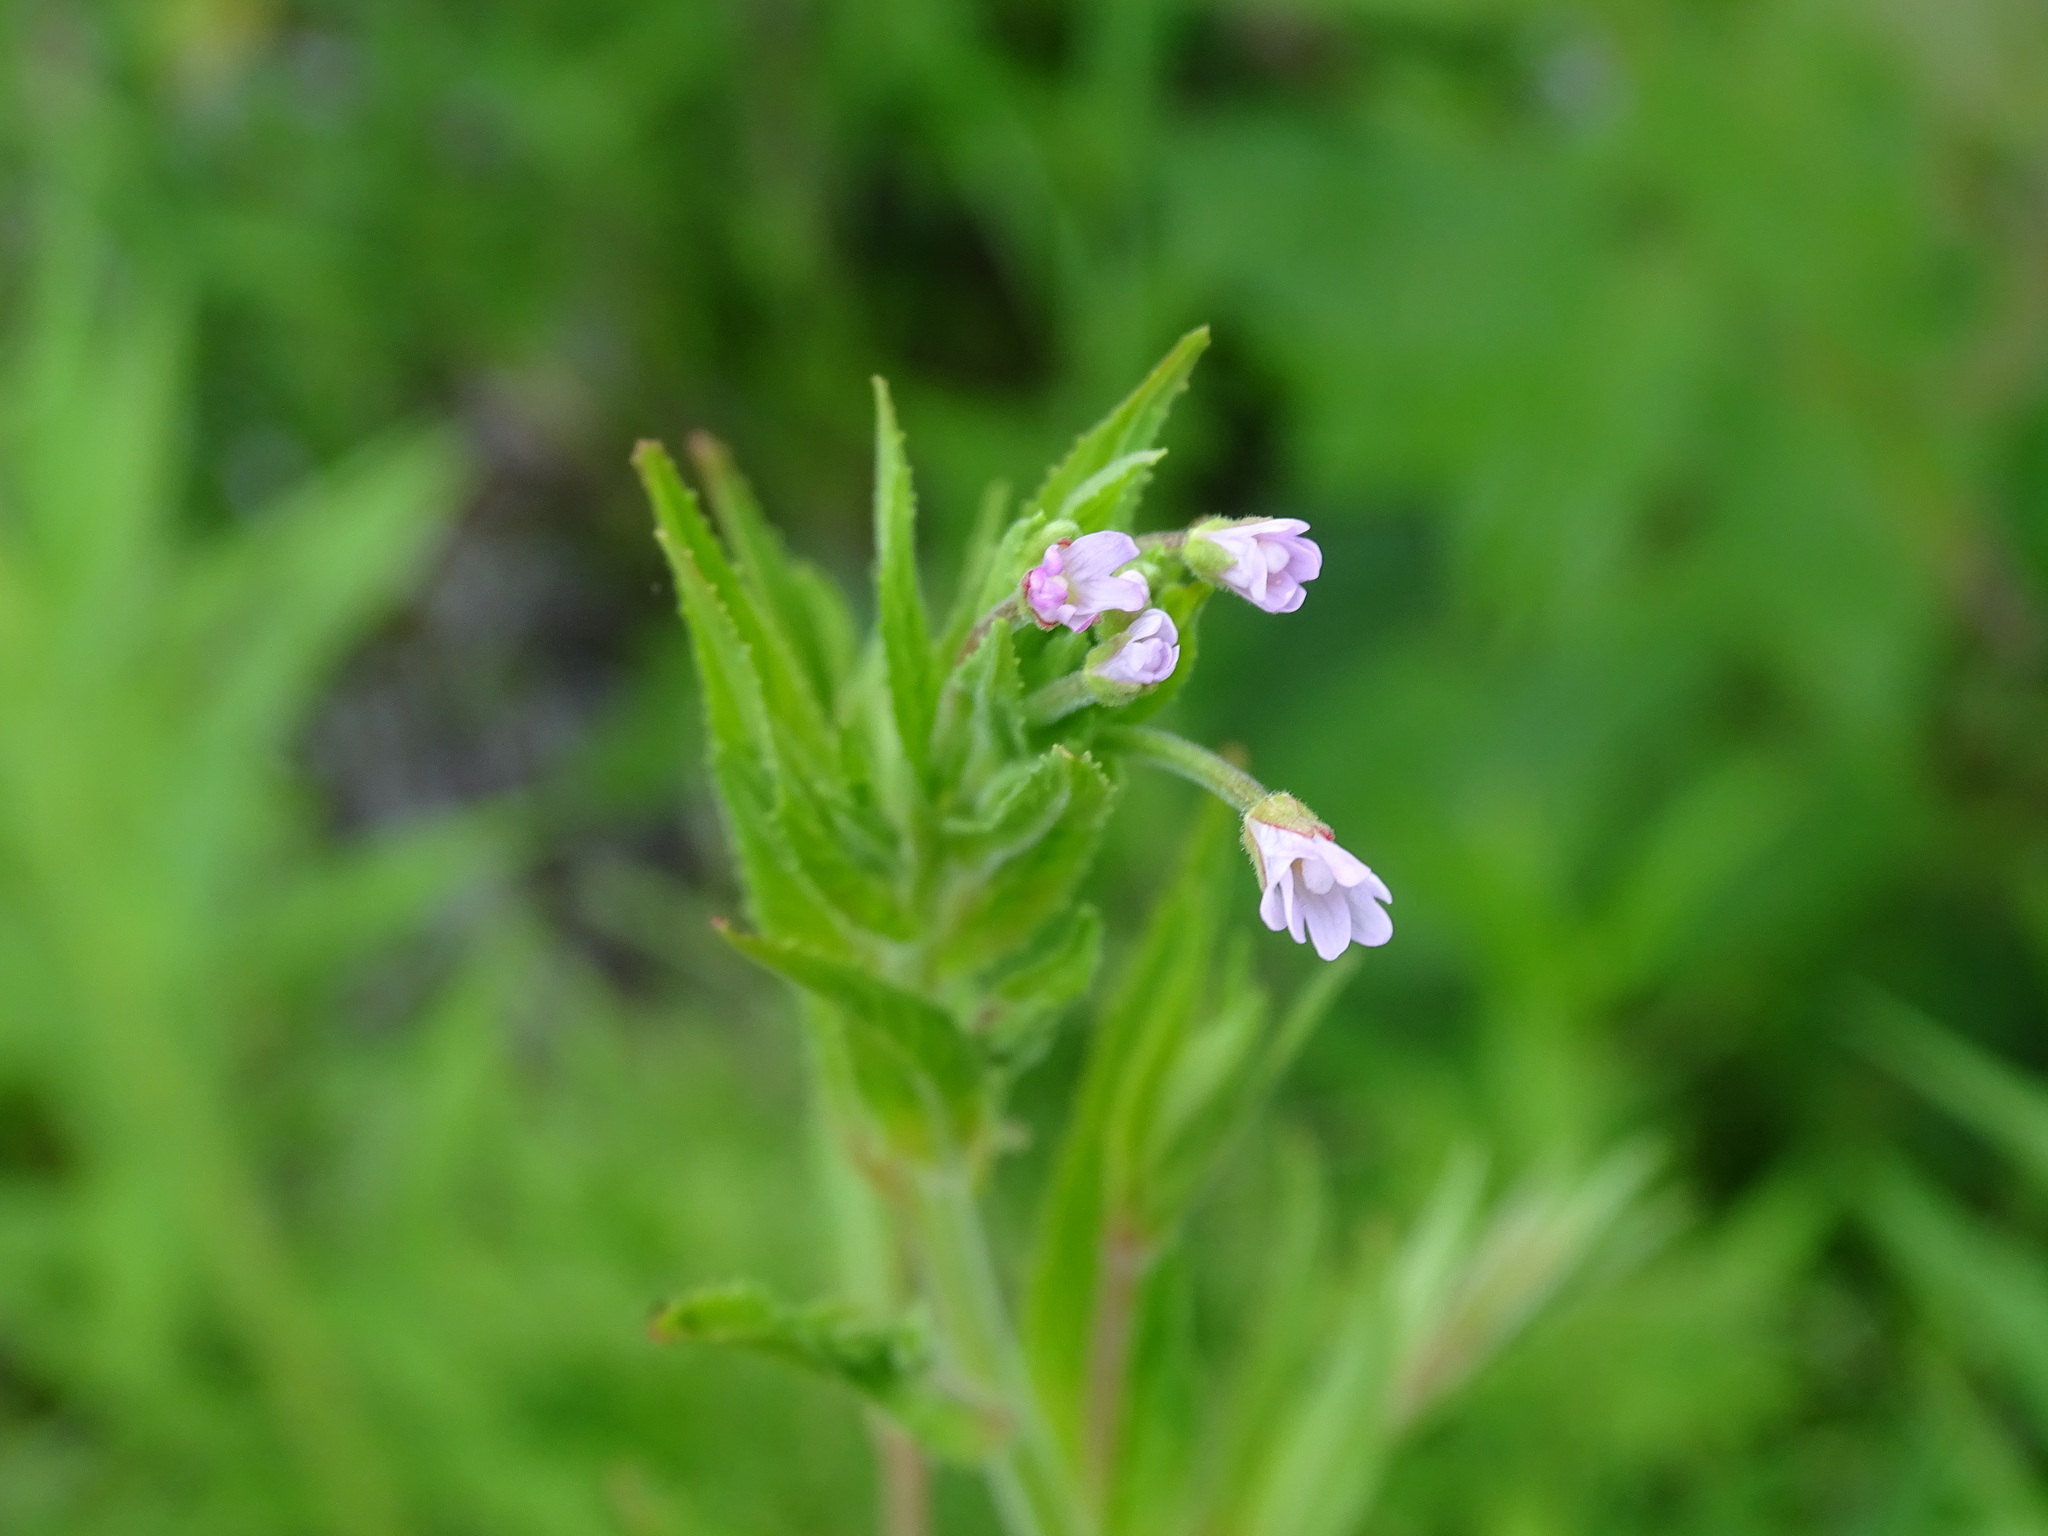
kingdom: Plantae
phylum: Tracheophyta
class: Magnoliopsida
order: Myrtales
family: Onagraceae
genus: Epilobium
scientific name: Epilobium coloratum
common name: Bronze willowherb
